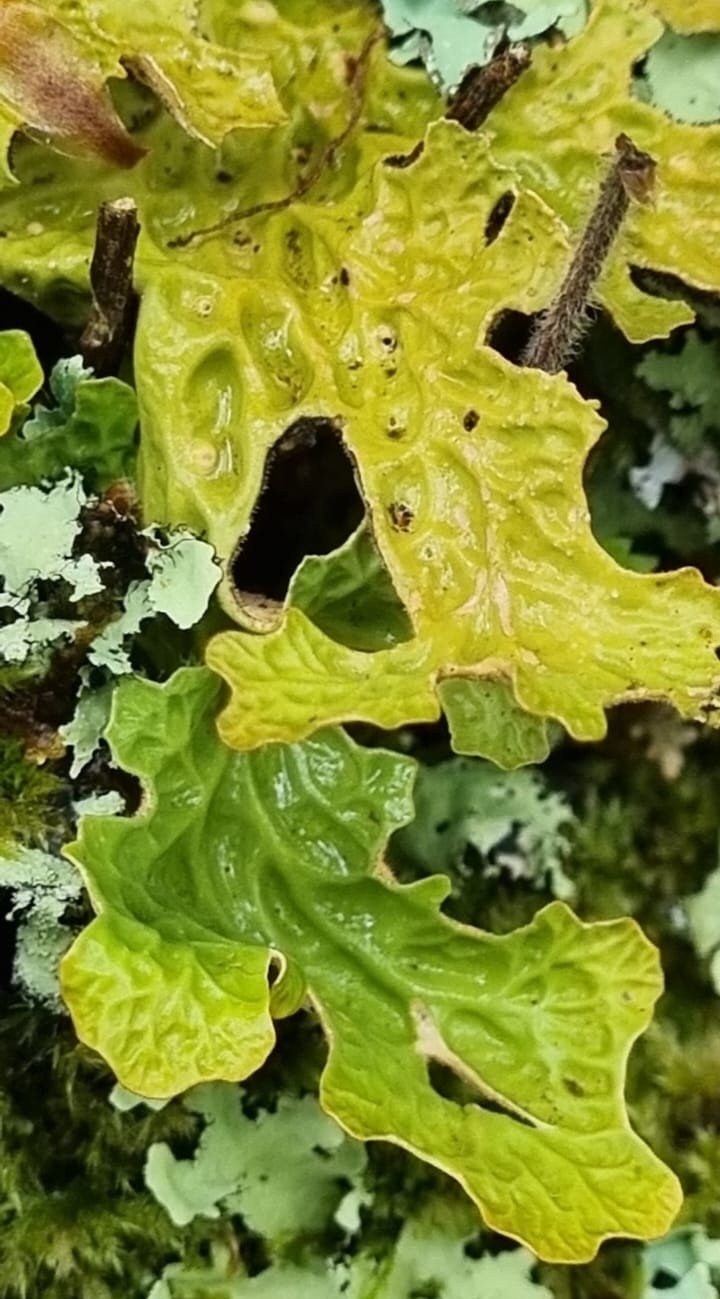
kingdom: Fungi
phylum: Ascomycota
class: Lecanoromycetes
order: Peltigerales
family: Lobariaceae
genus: Lobaria
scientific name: Lobaria pulmonaria
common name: Lungwort
